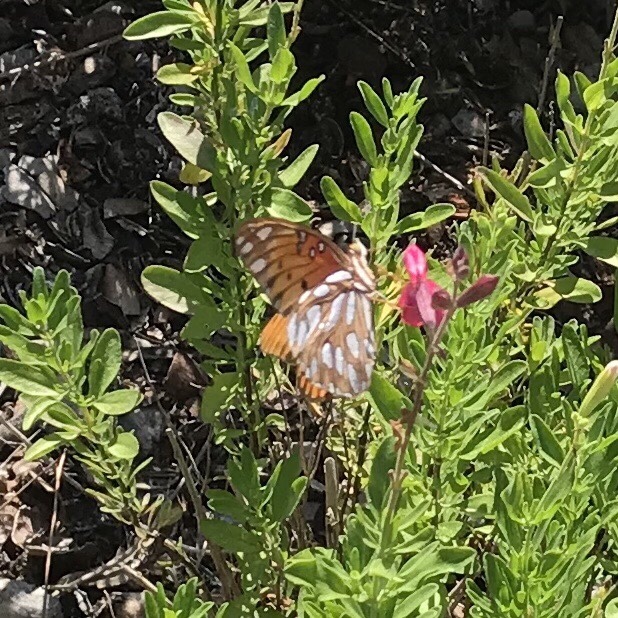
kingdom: Animalia
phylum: Arthropoda
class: Insecta
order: Lepidoptera
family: Nymphalidae
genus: Dione
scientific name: Dione vanillae
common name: Gulf fritillary
